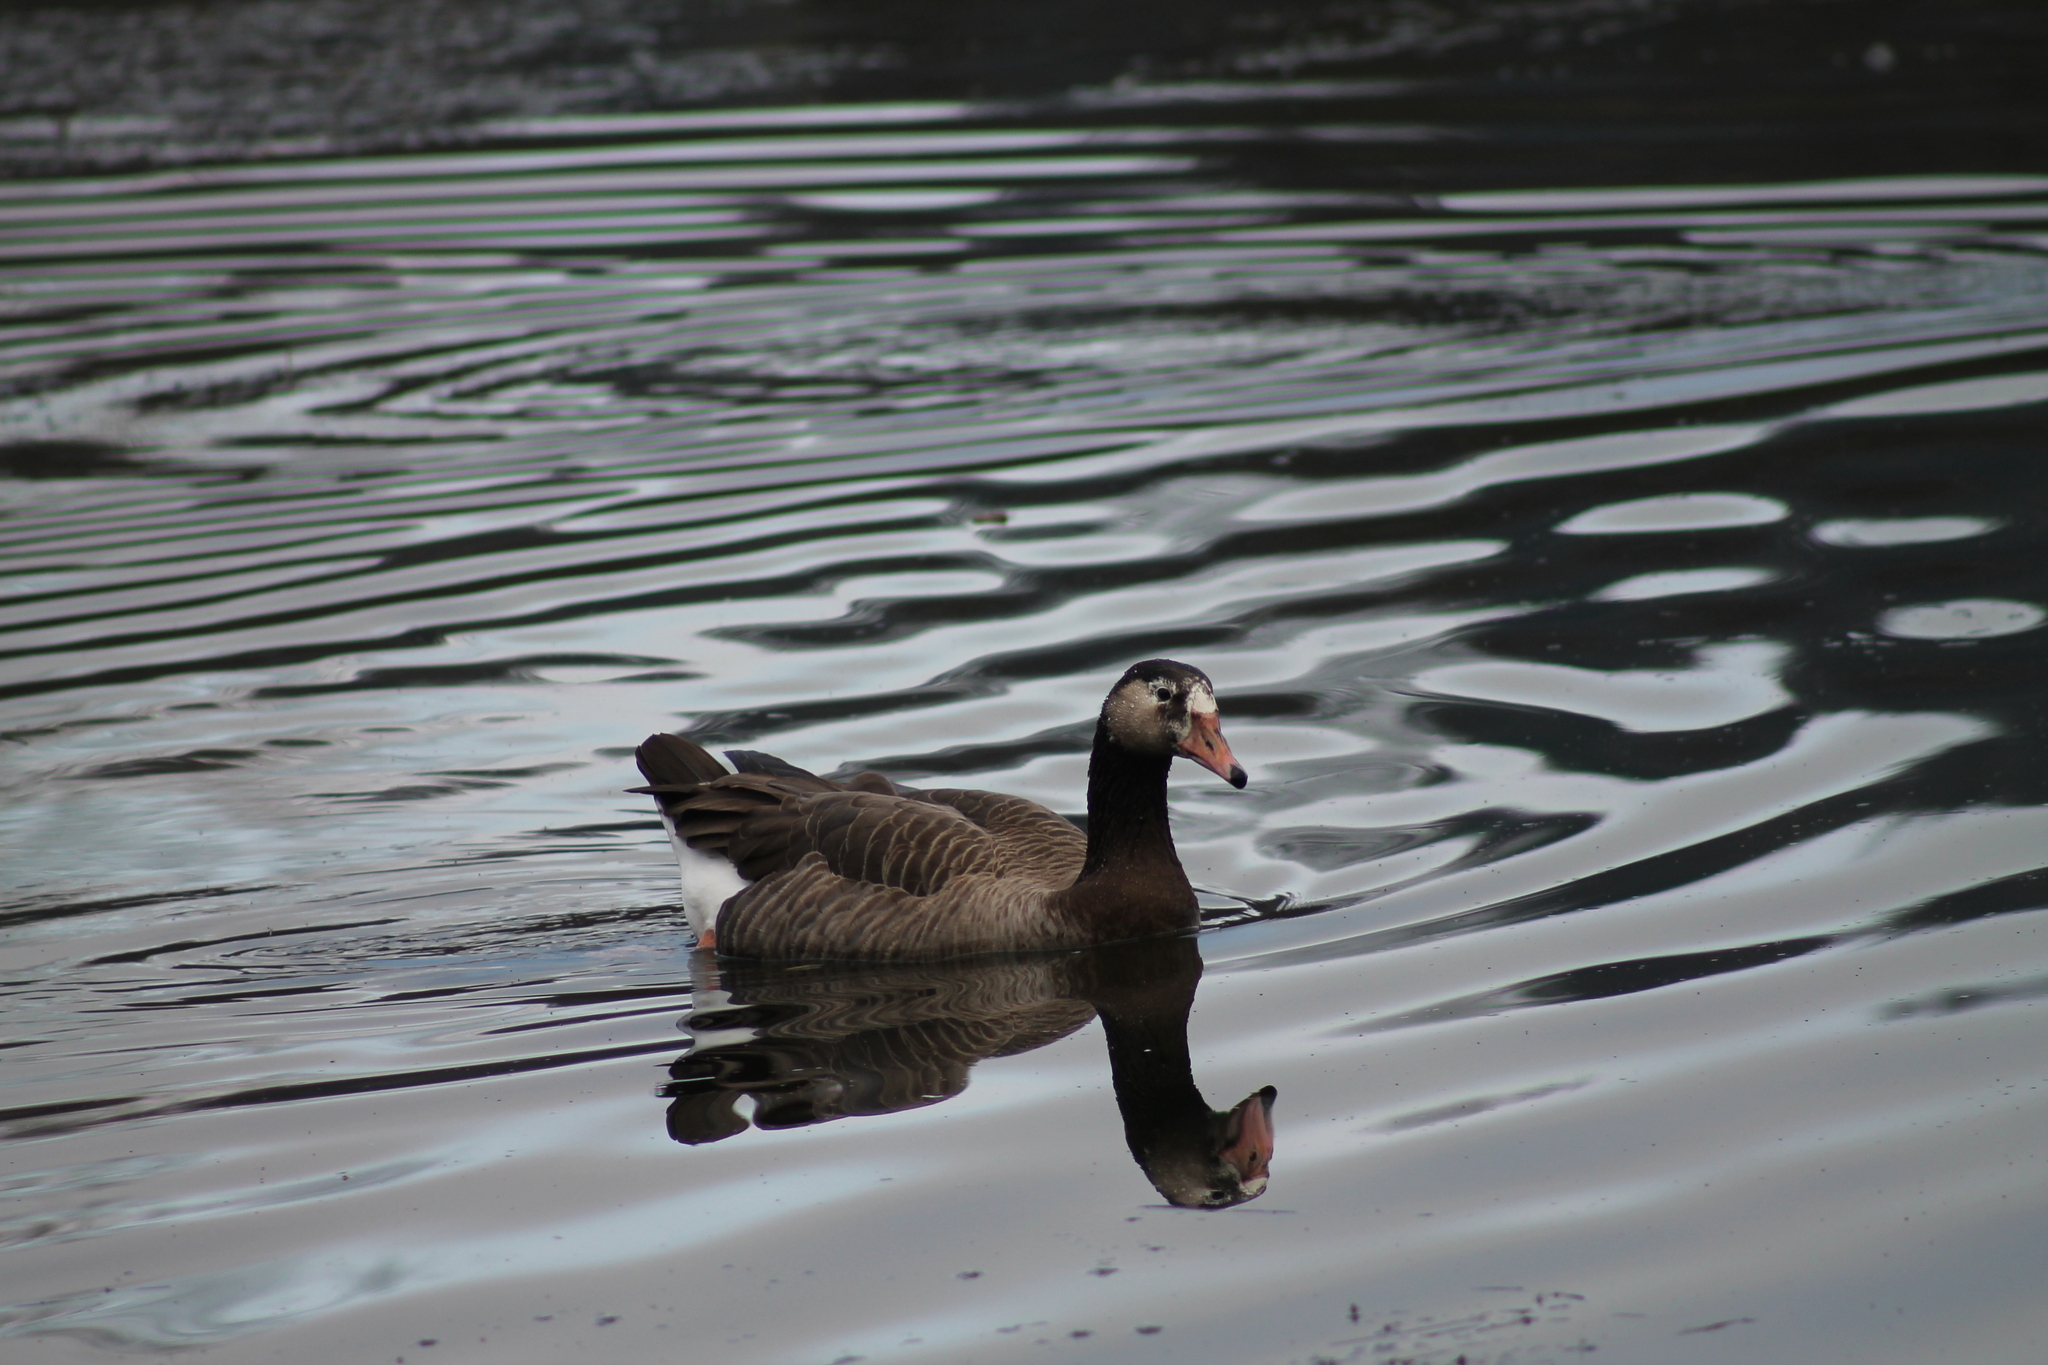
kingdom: Animalia
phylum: Chordata
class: Aves
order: Anseriformes
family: Anatidae
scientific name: Anatidae
